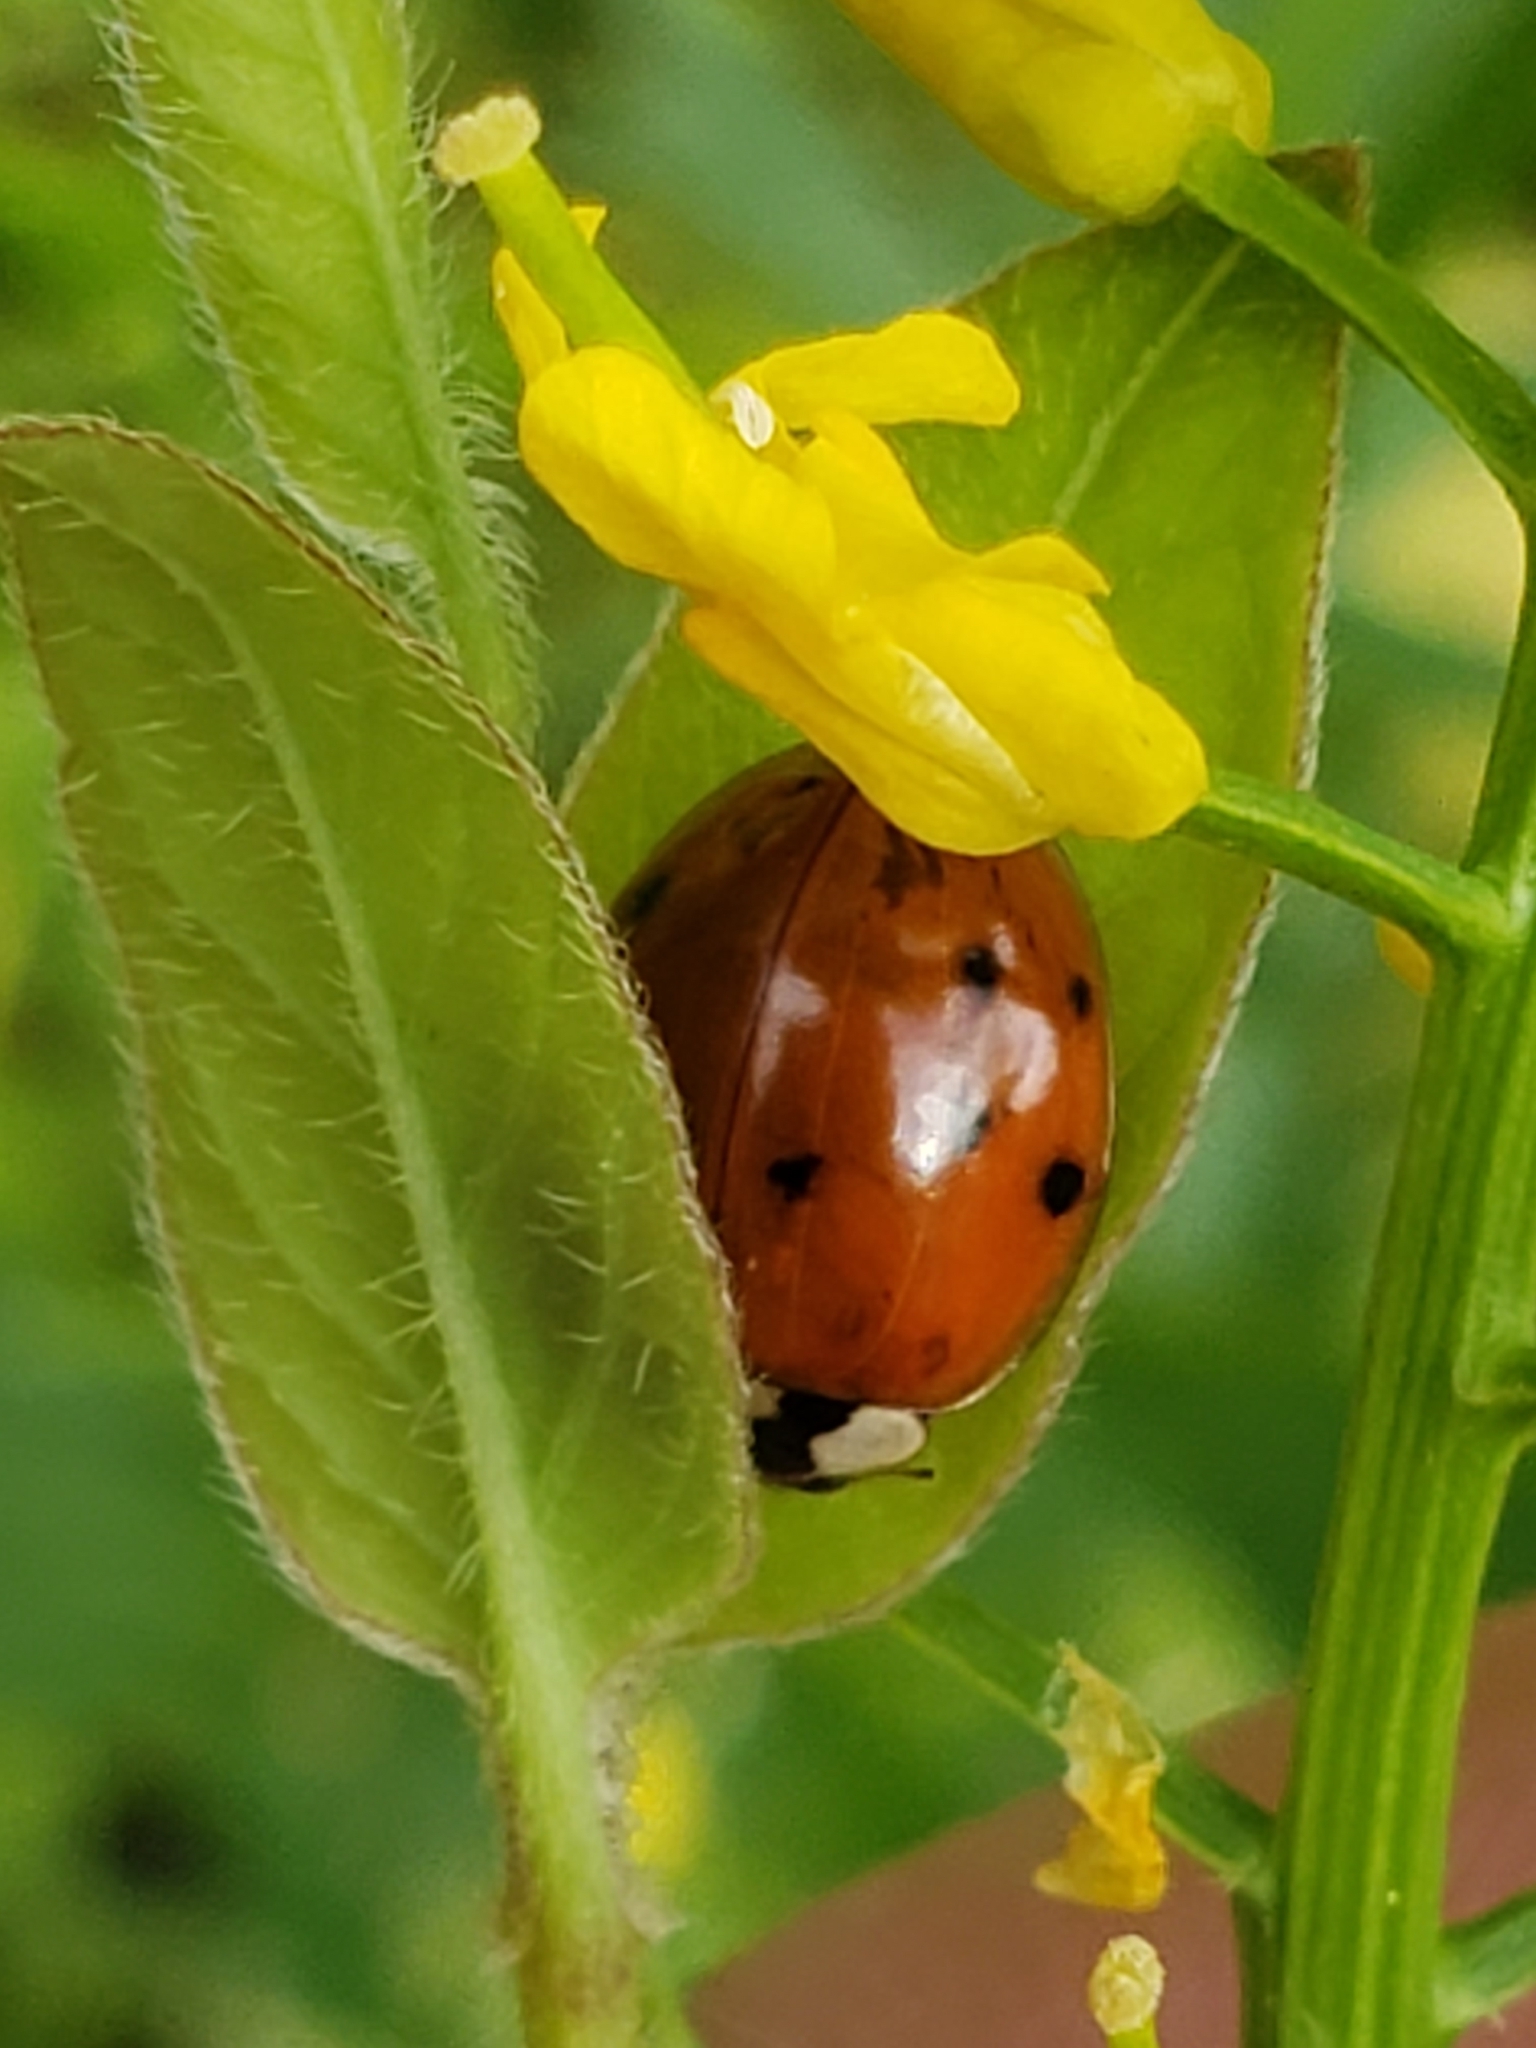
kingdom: Animalia
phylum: Arthropoda
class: Insecta
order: Coleoptera
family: Coccinellidae
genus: Harmonia
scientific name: Harmonia axyridis
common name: Harlequin ladybird
